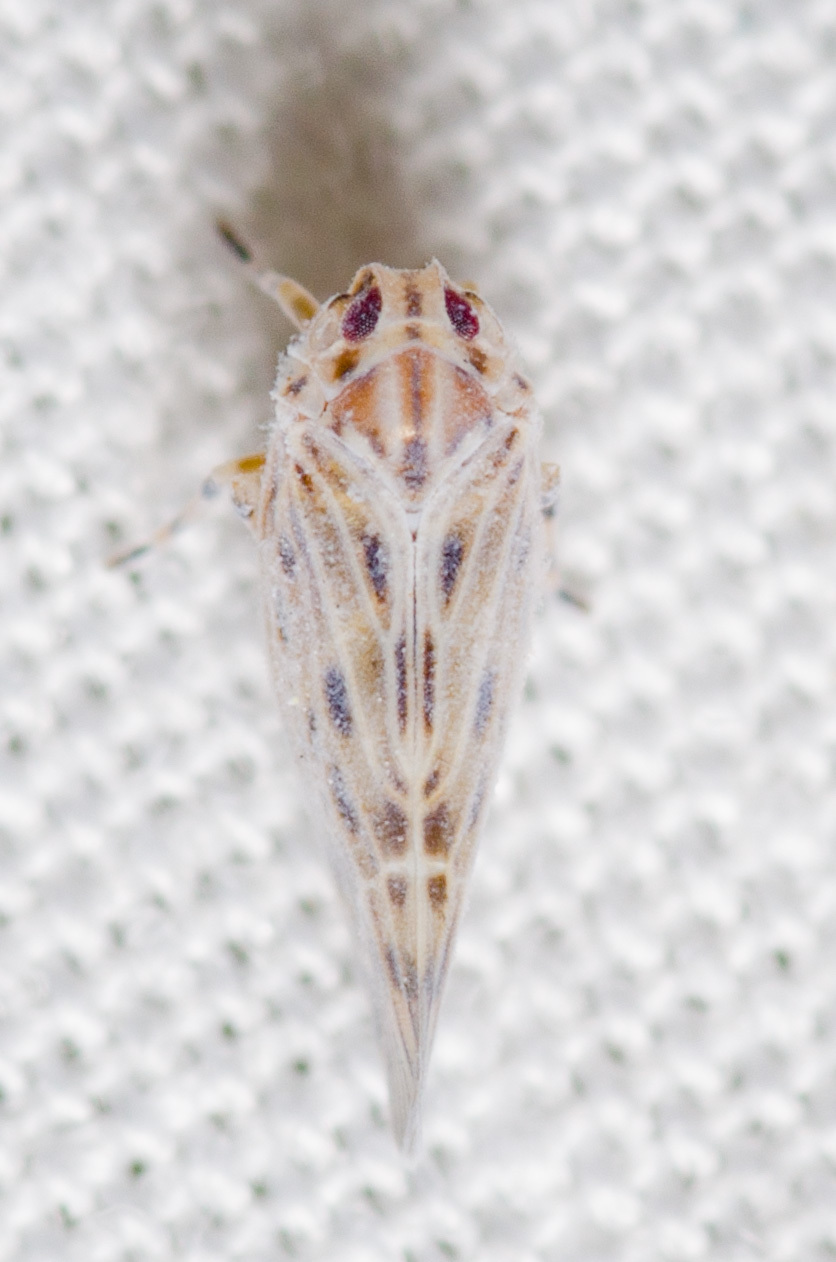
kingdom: Animalia
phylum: Arthropoda
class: Insecta
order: Hemiptera
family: Derbidae
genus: Cedusa
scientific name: Cedusa maculata
